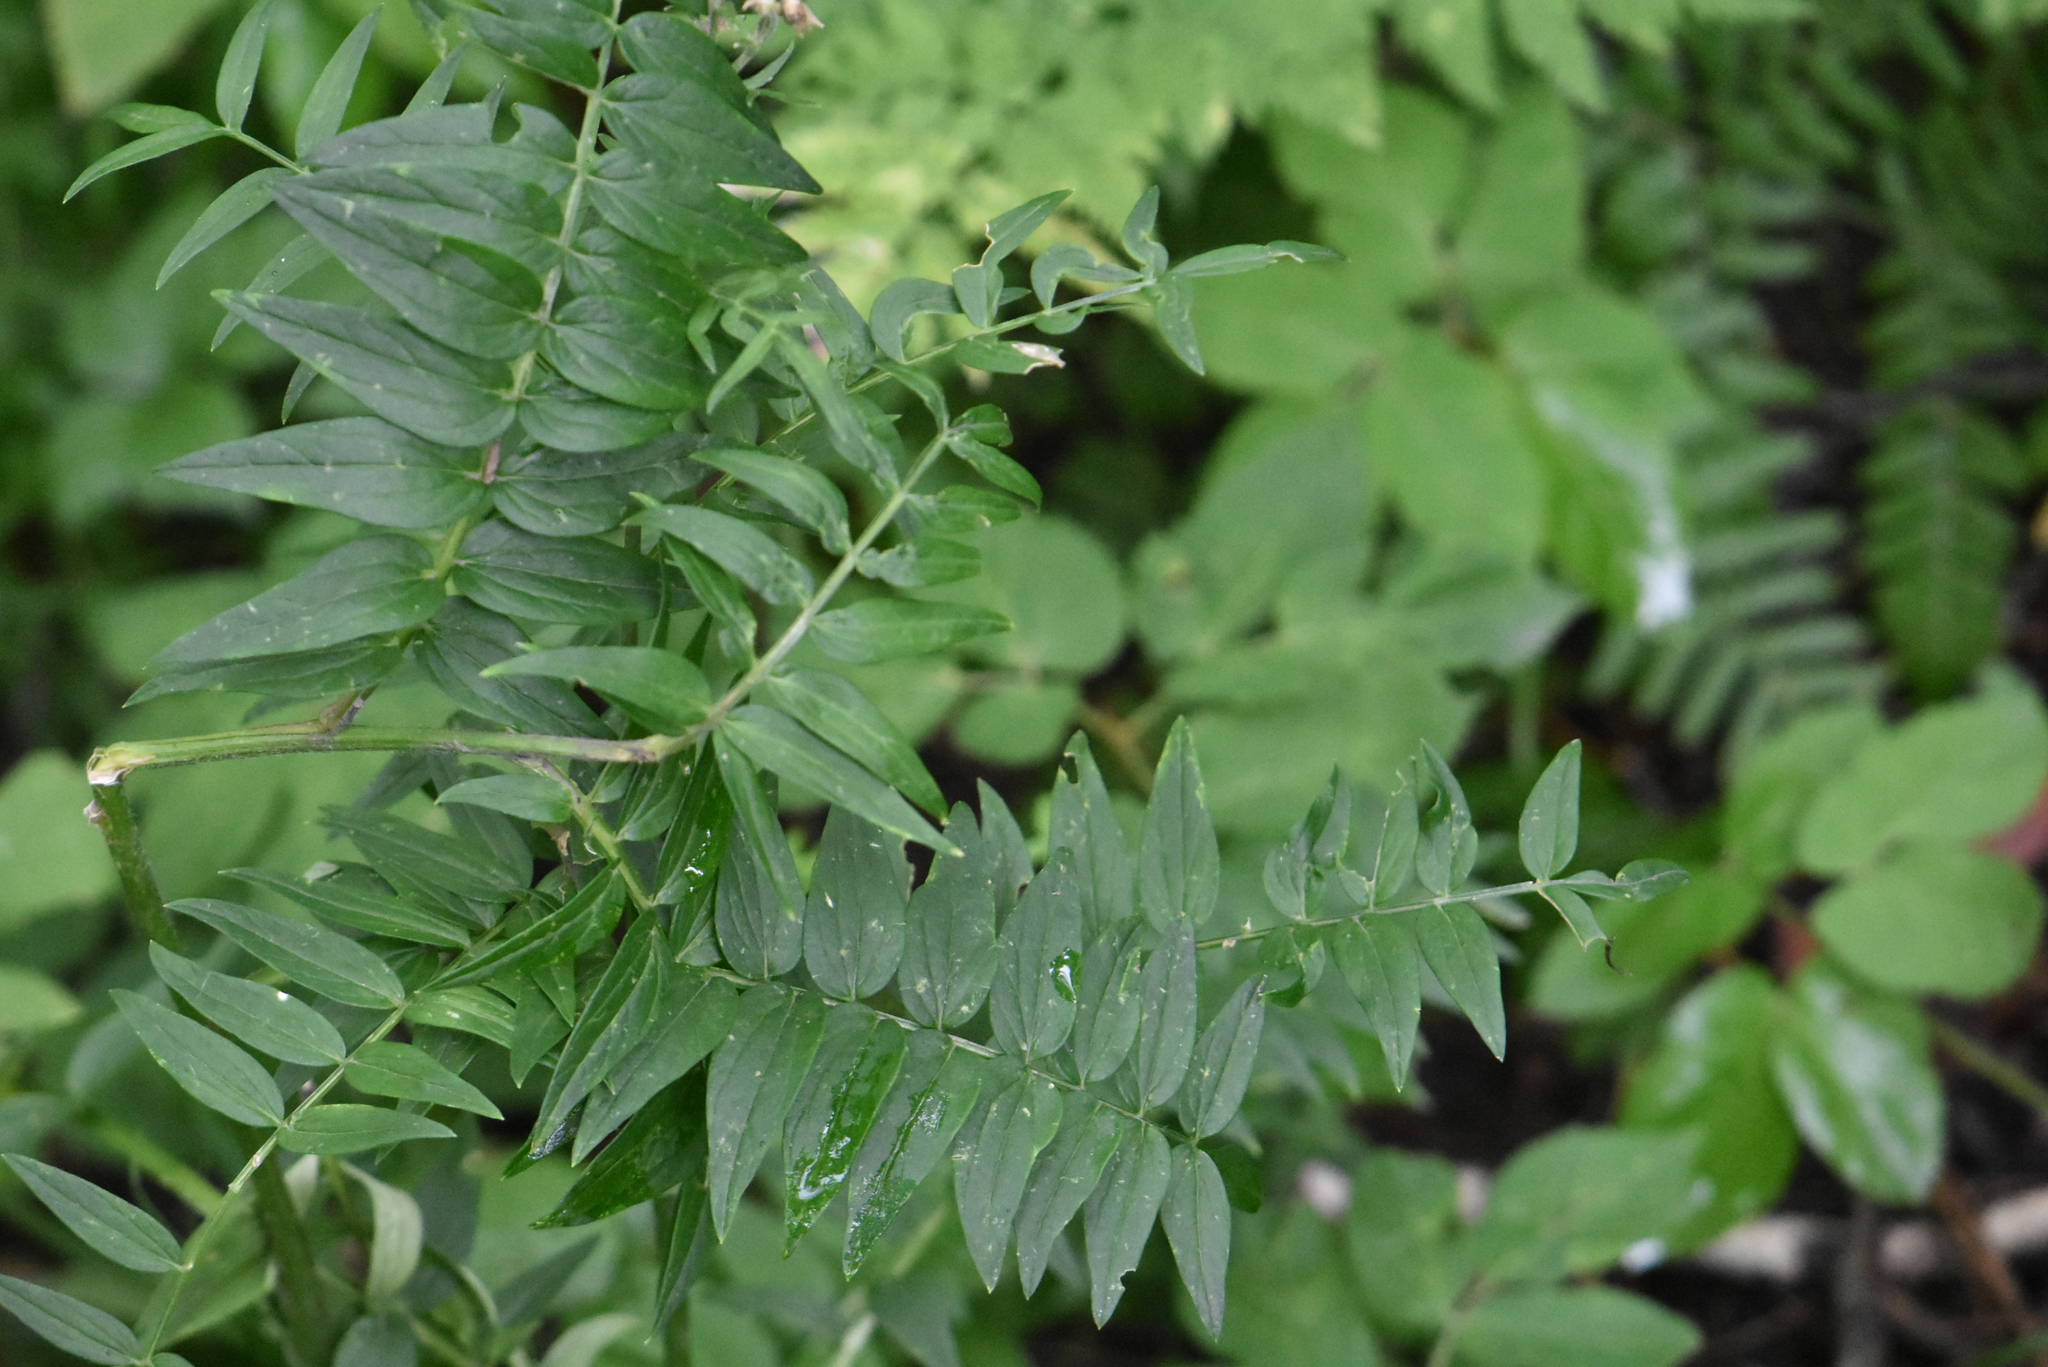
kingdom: Plantae
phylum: Tracheophyta
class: Magnoliopsida
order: Ericales
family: Polemoniaceae
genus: Polemonium
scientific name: Polemonium caeruleum
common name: Jacob's-ladder
